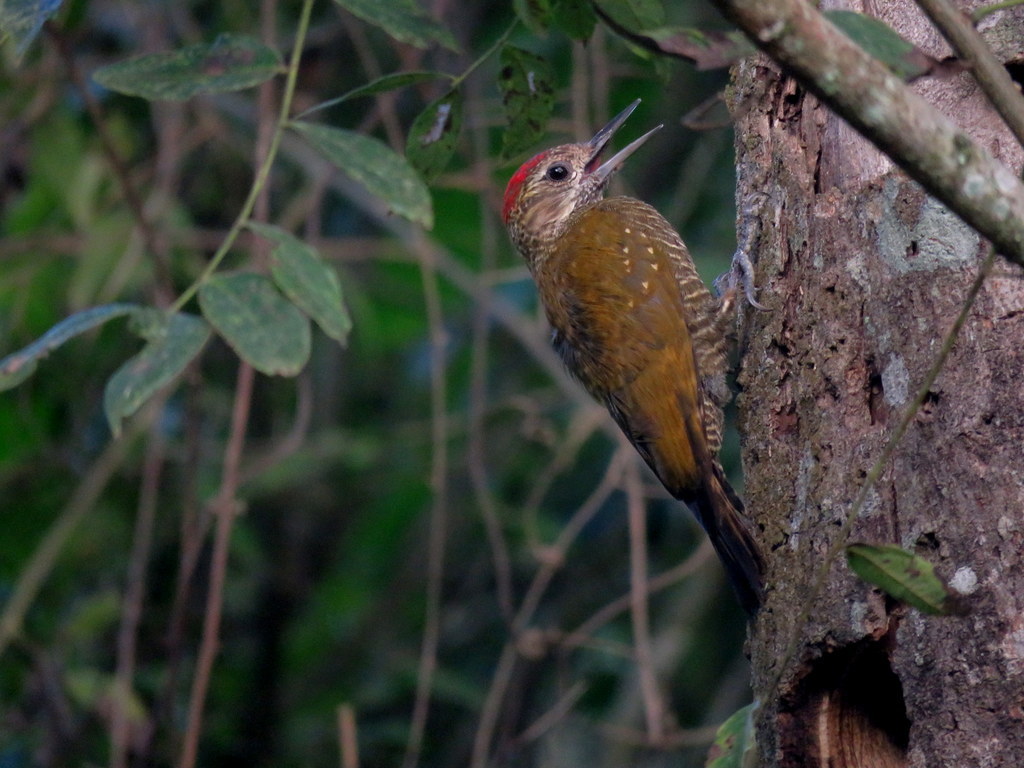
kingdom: Animalia
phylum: Chordata
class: Aves
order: Piciformes
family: Picidae
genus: Veniliornis
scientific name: Veniliornis frontalis
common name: Dot-fronted woodpecker
